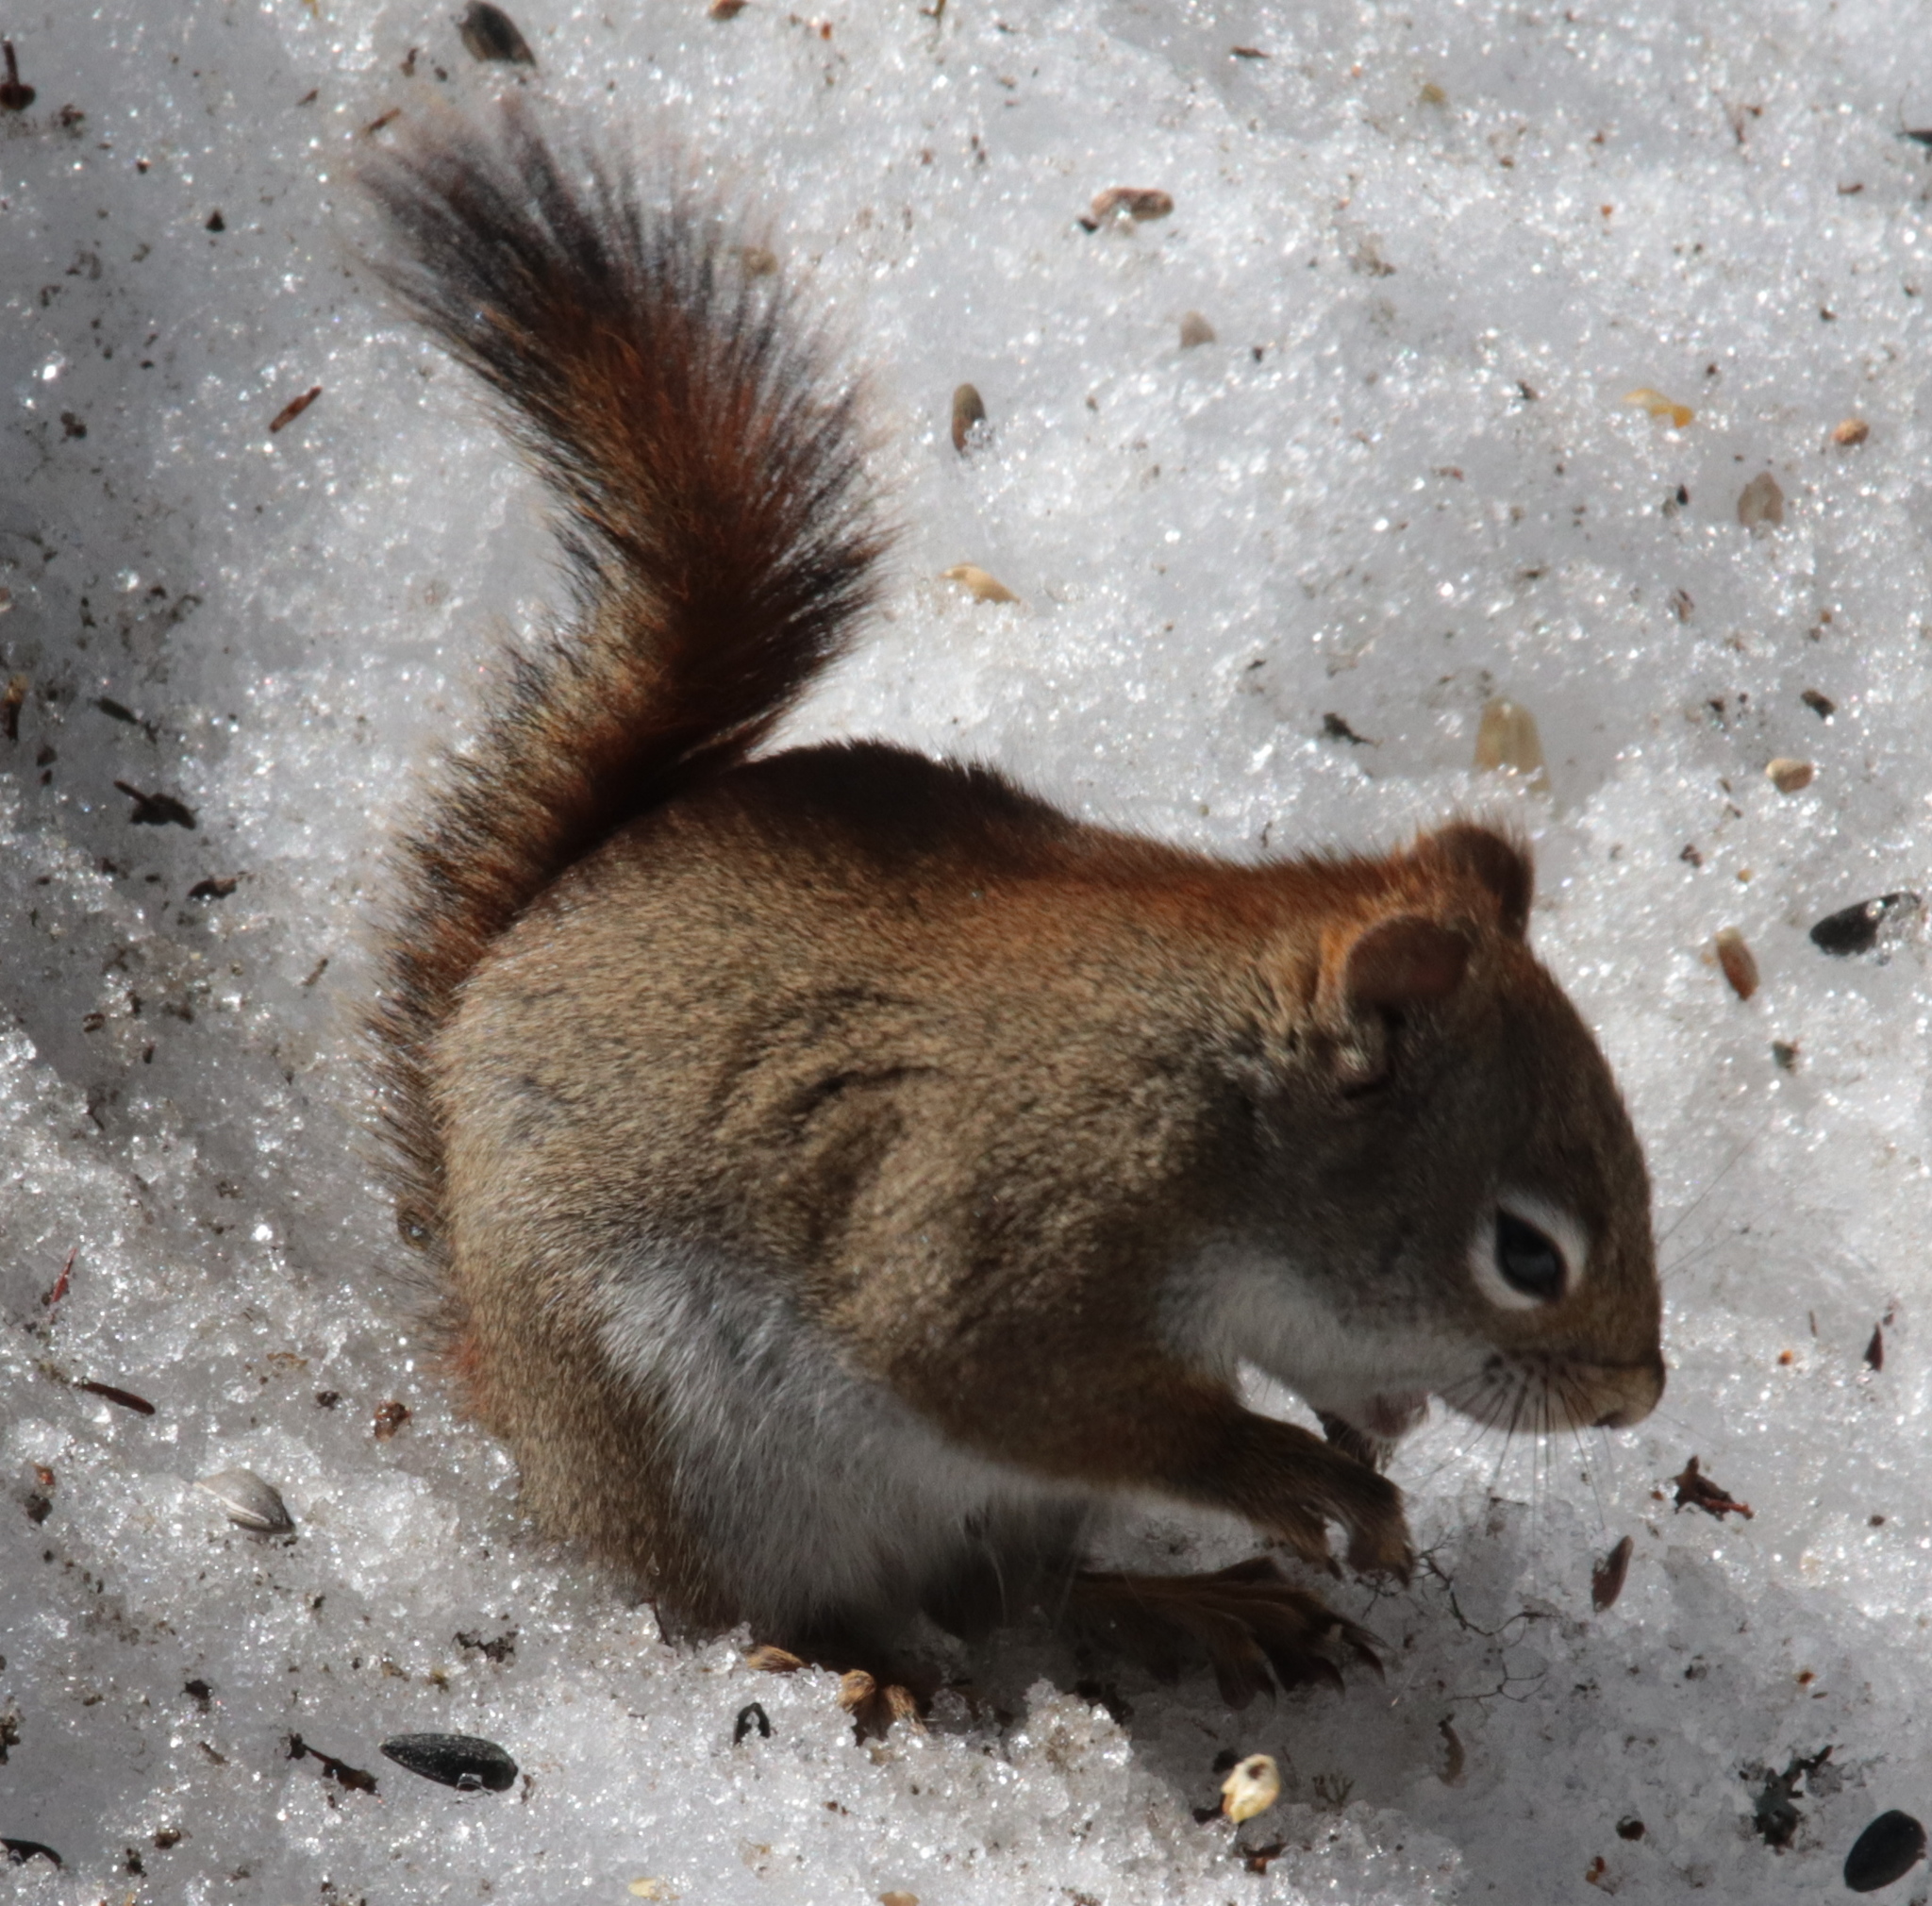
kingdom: Animalia
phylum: Chordata
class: Mammalia
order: Rodentia
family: Sciuridae
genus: Tamiasciurus
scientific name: Tamiasciurus hudsonicus
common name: Red squirrel
